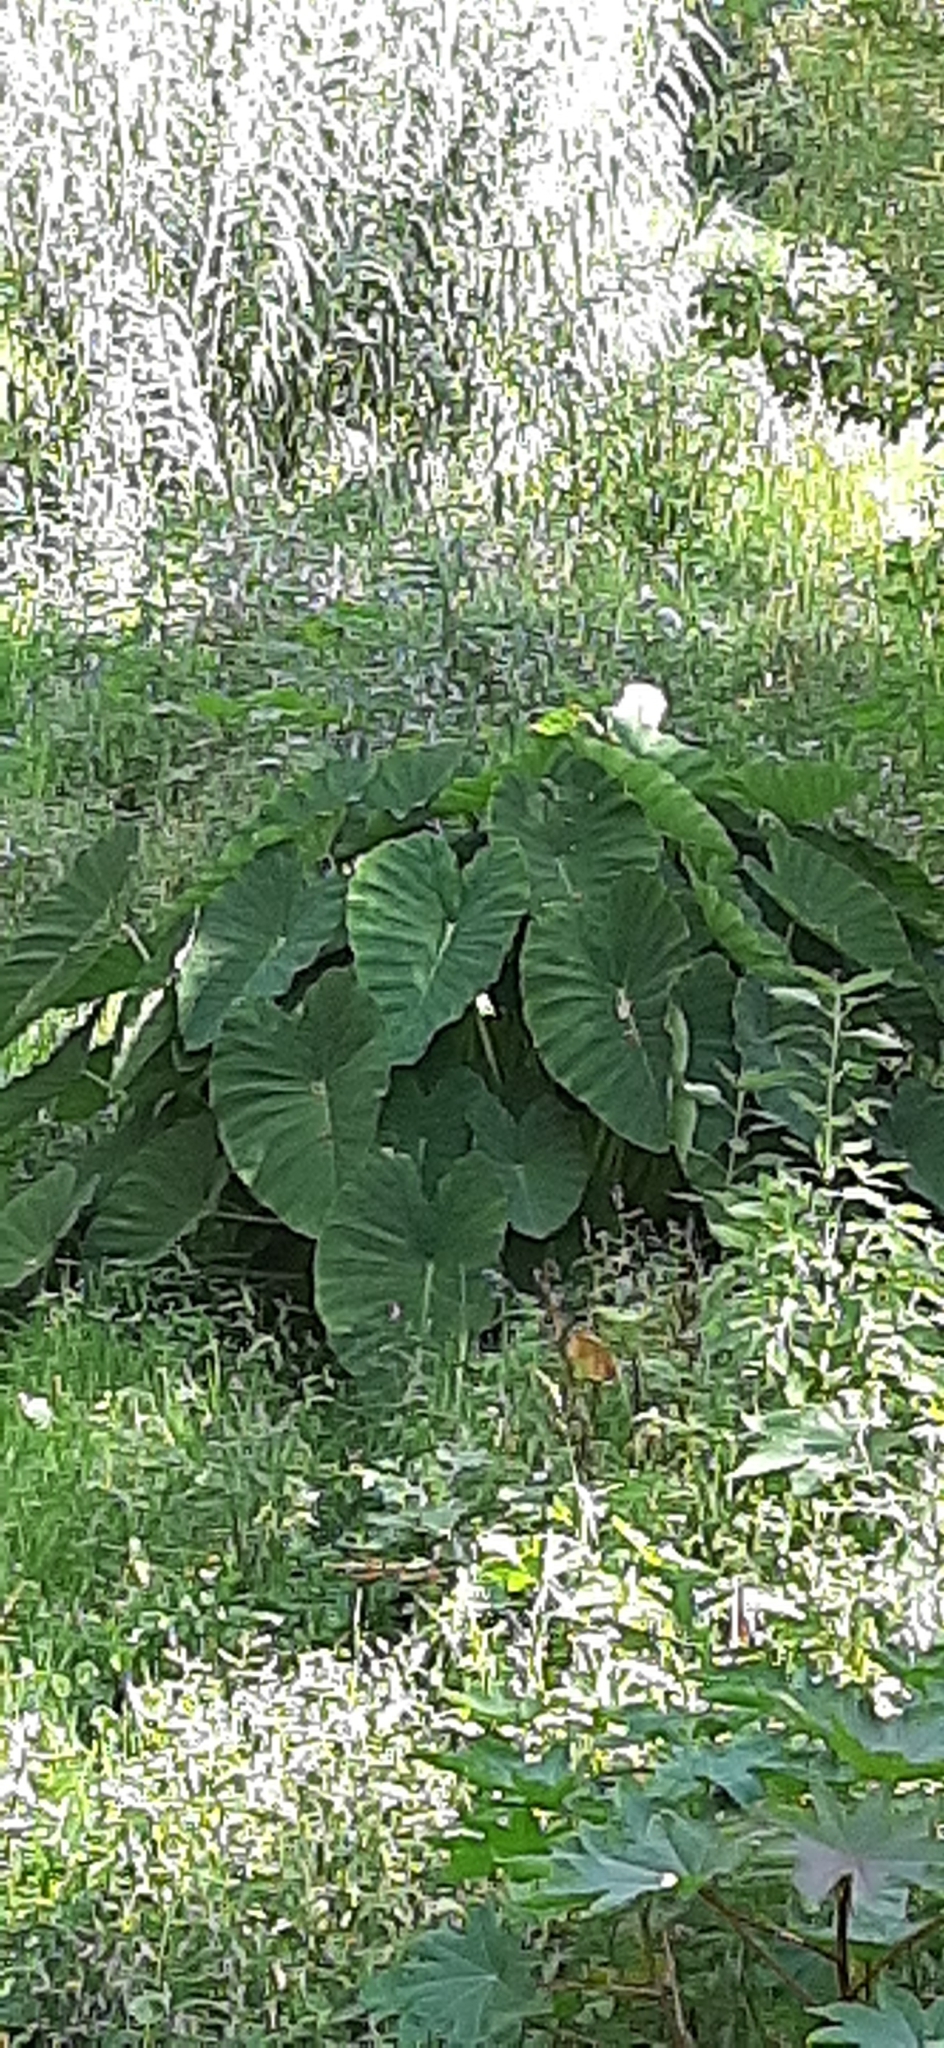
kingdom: Plantae
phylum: Tracheophyta
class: Liliopsida
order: Alismatales
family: Araceae
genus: Colocasia
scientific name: Colocasia esculenta
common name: Taro
